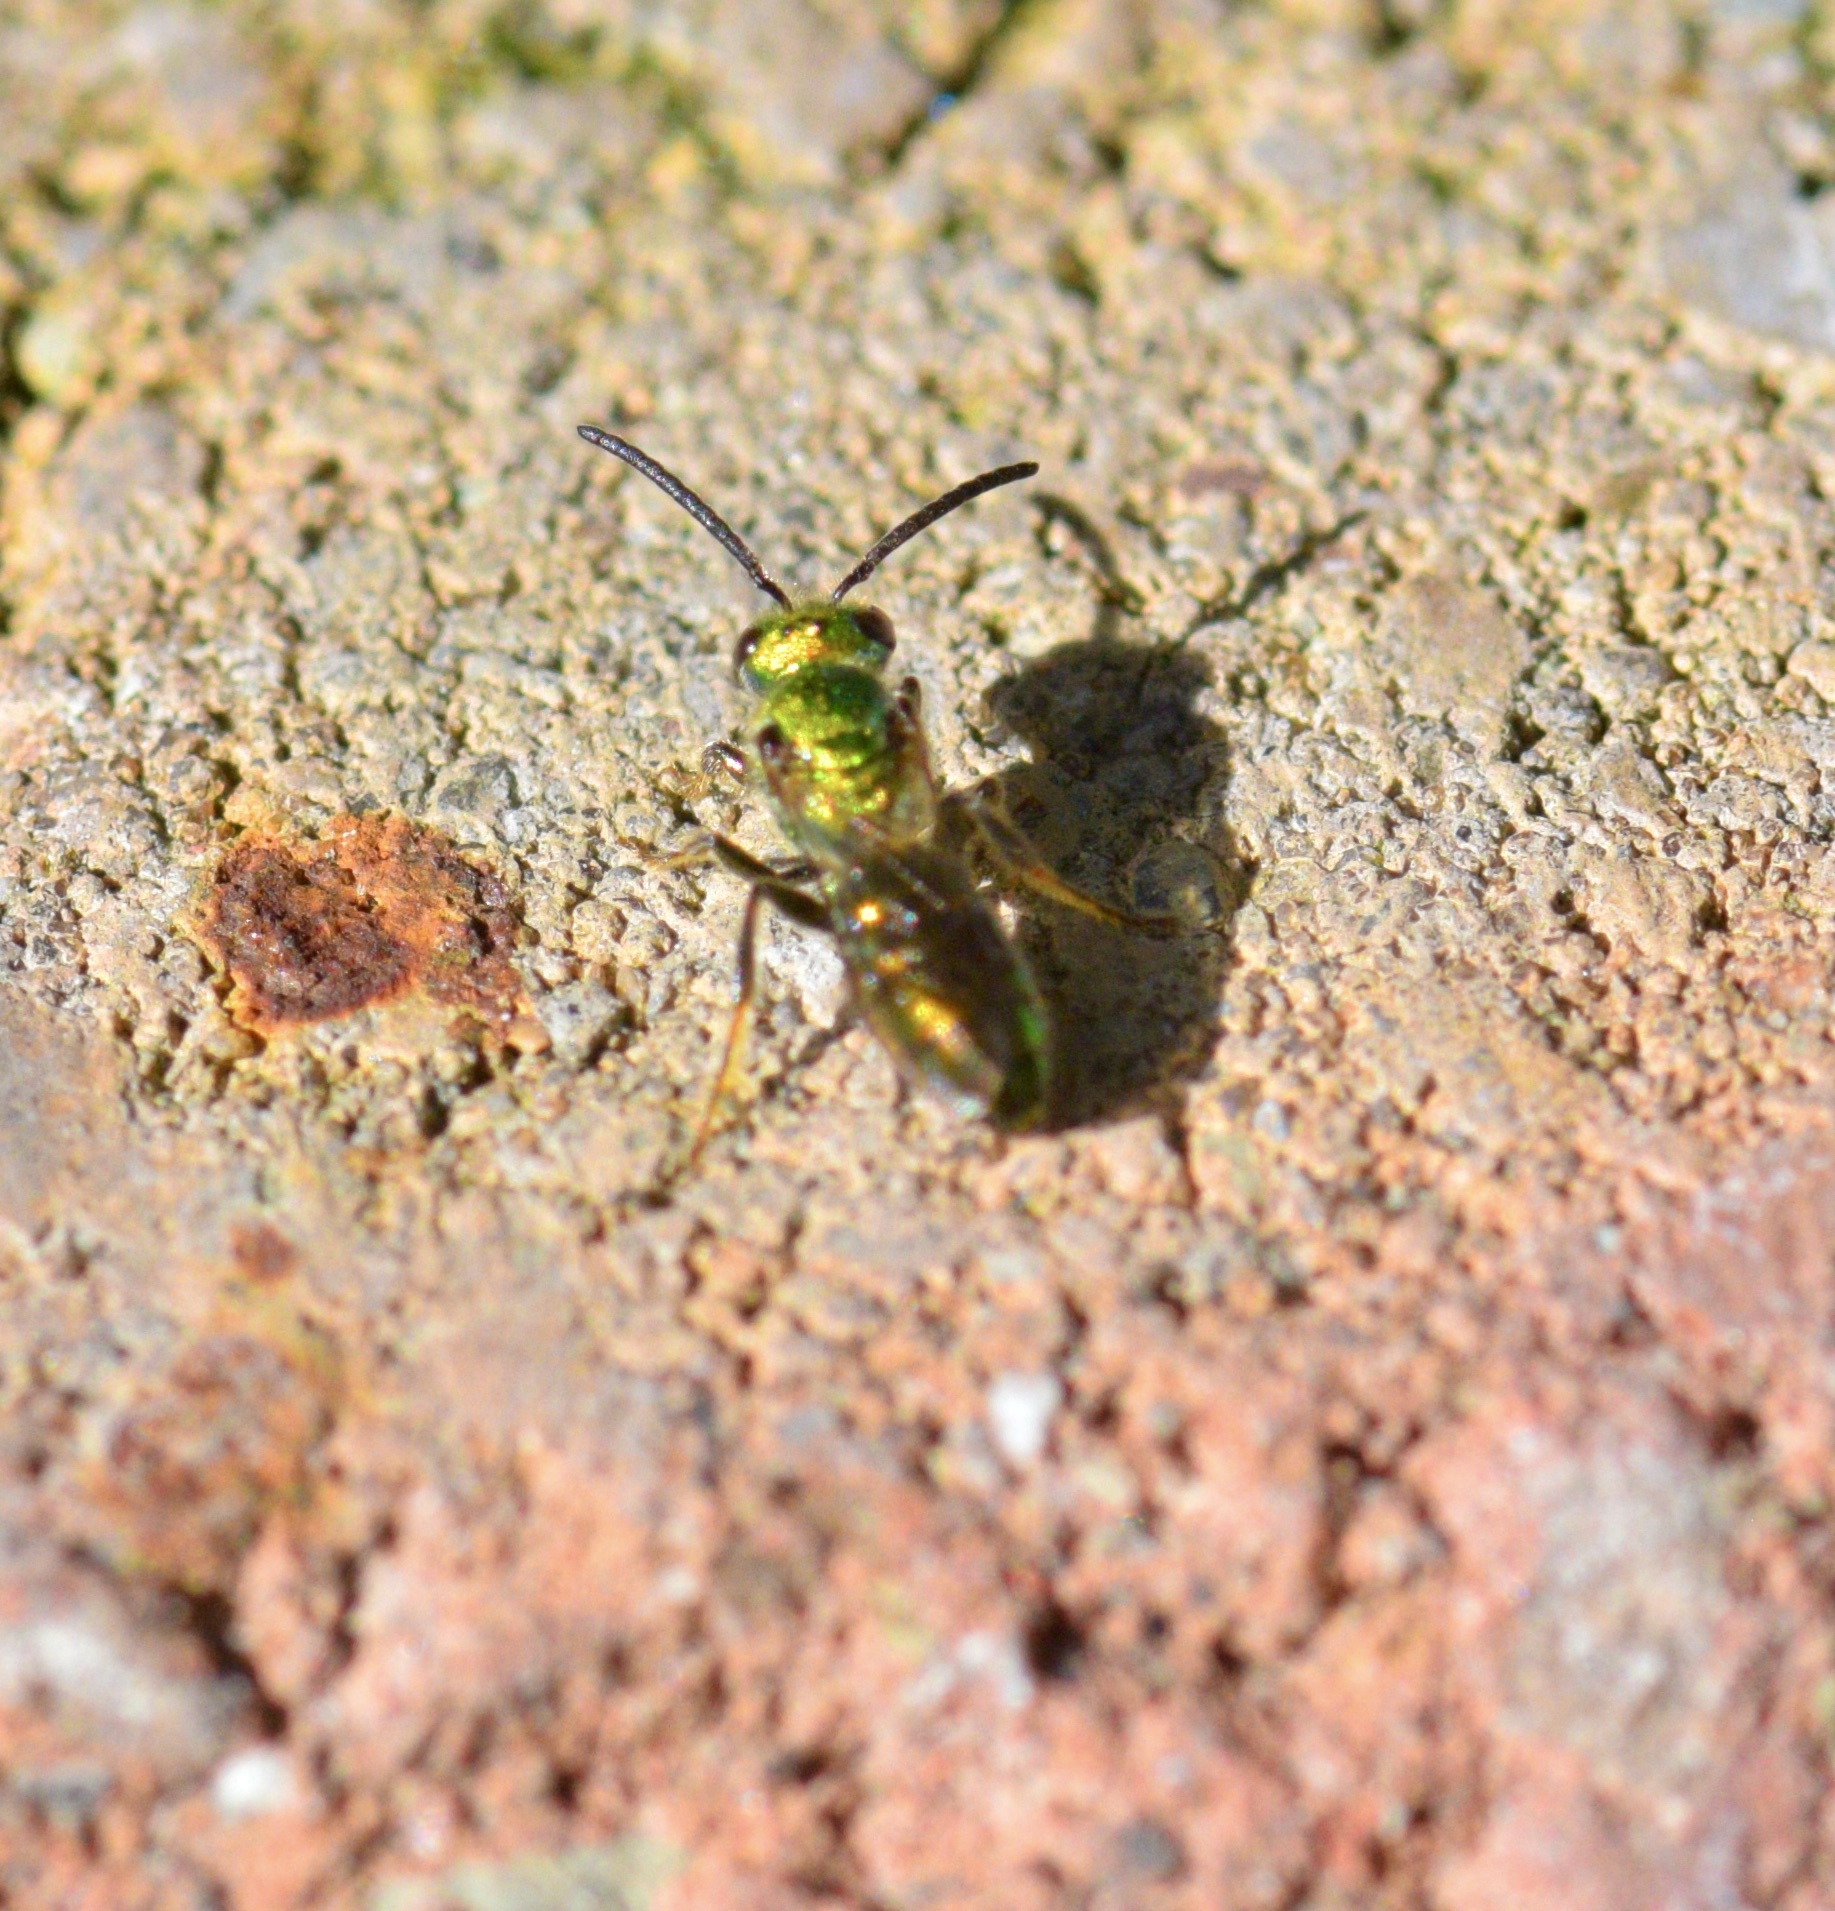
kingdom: Animalia
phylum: Arthropoda
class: Insecta
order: Hymenoptera
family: Halictidae
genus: Augochlora
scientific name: Augochlora pura
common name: Pure green sweat bee
